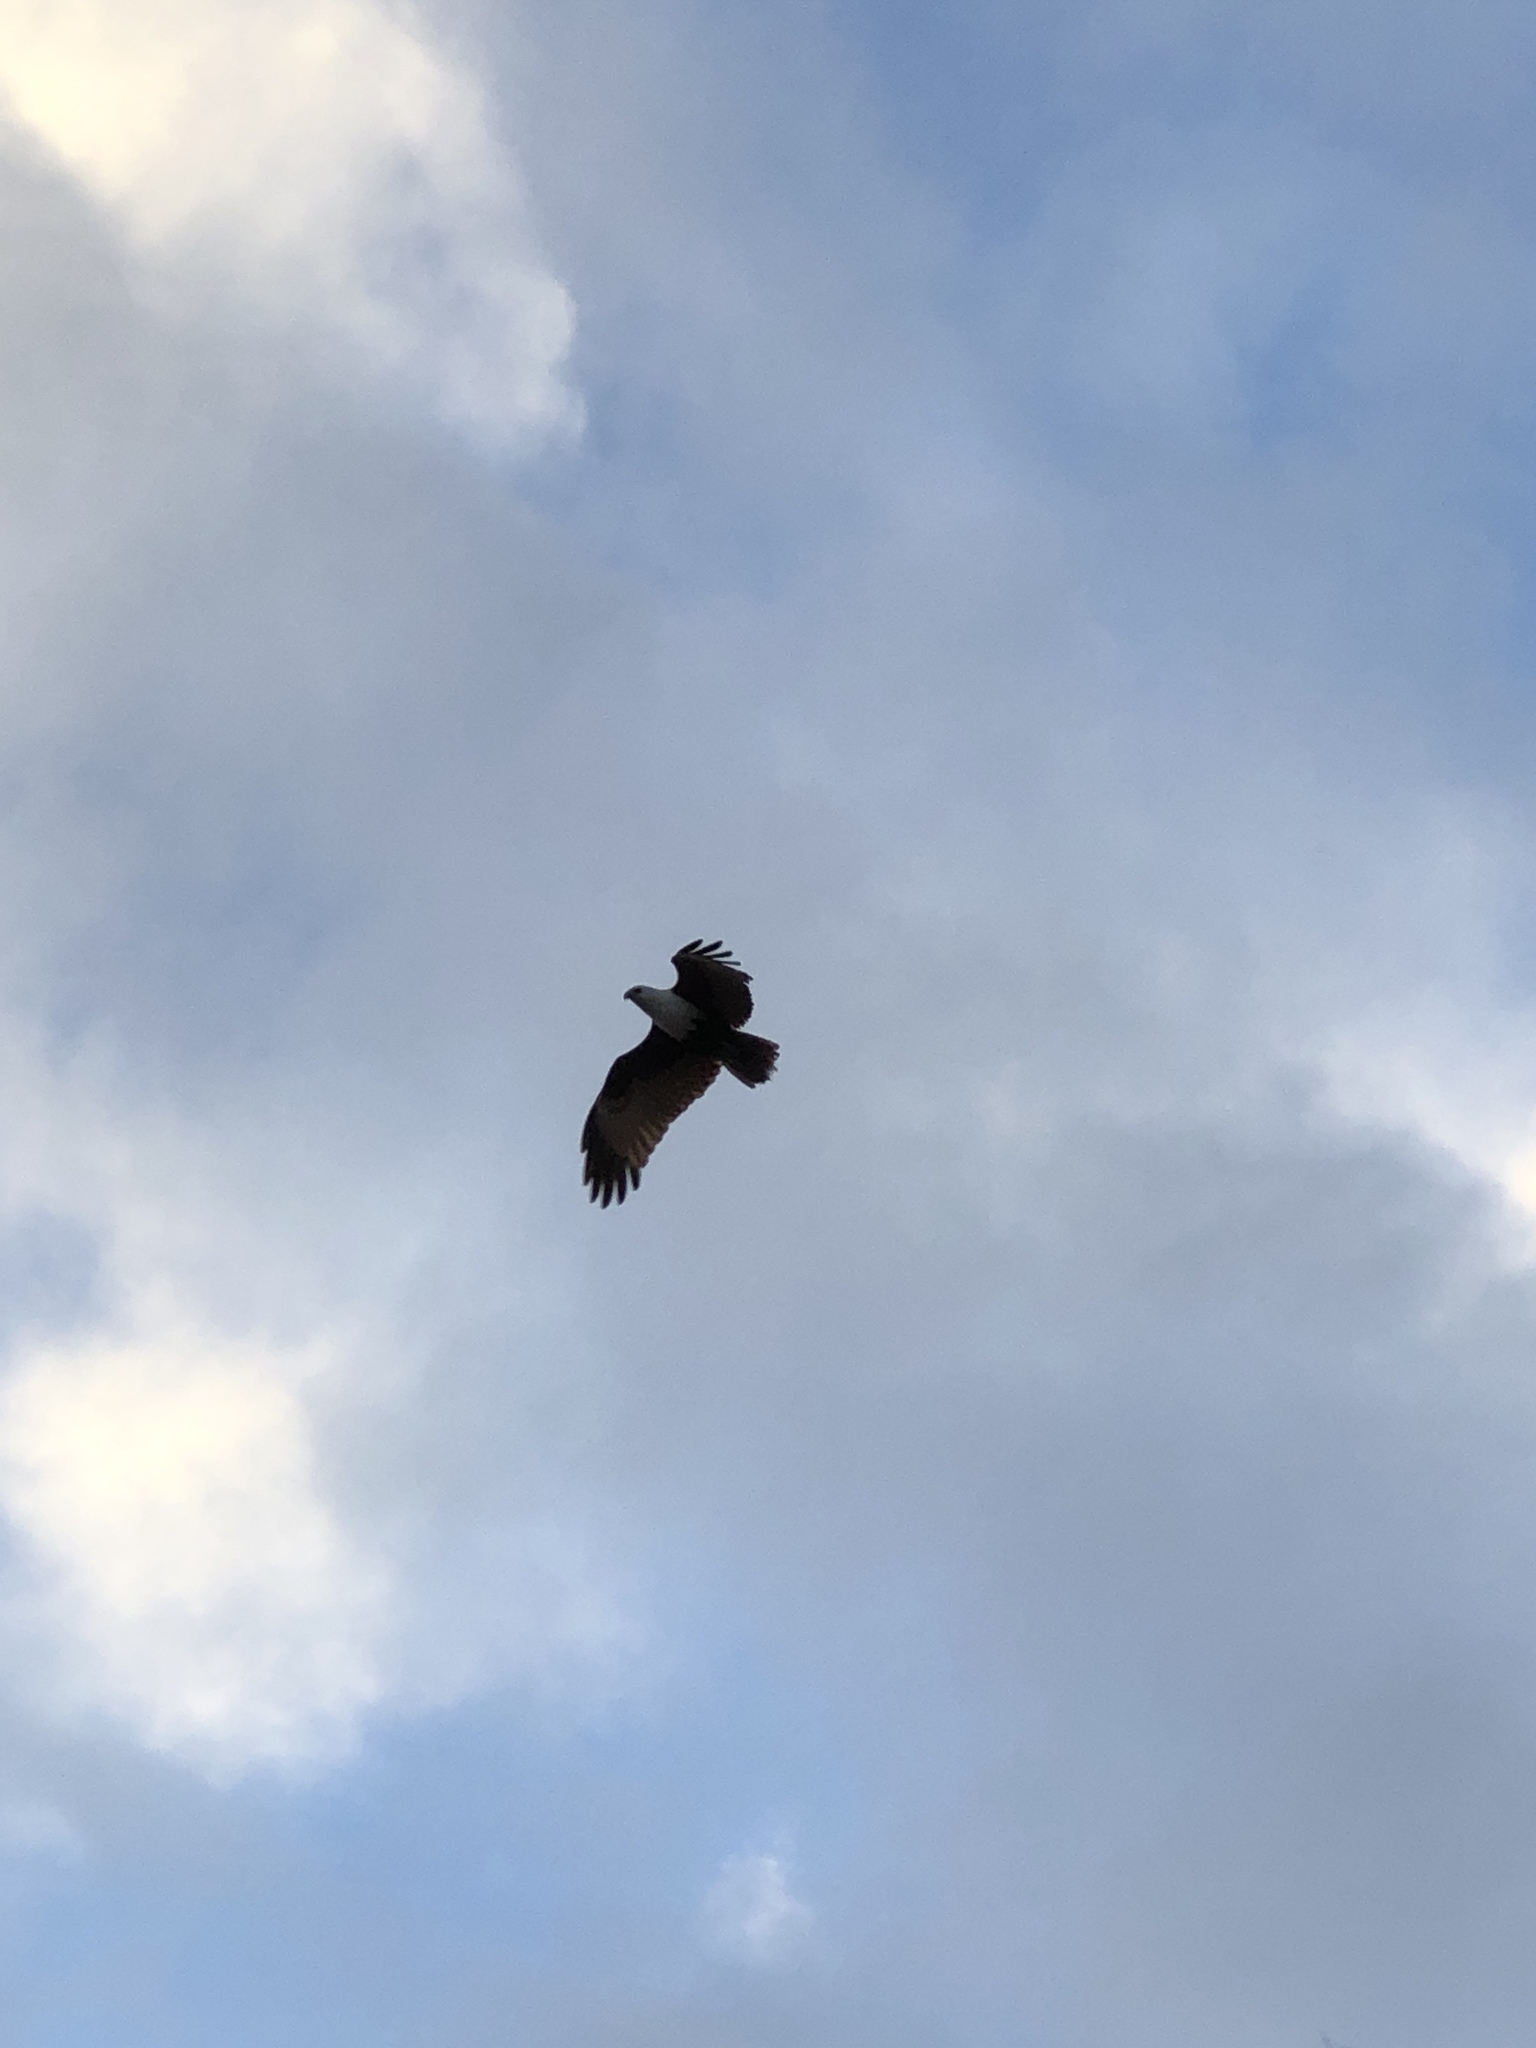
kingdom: Animalia
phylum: Chordata
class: Aves
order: Accipitriformes
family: Accipitridae
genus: Haliastur
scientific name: Haliastur indus
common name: Brahminy kite
